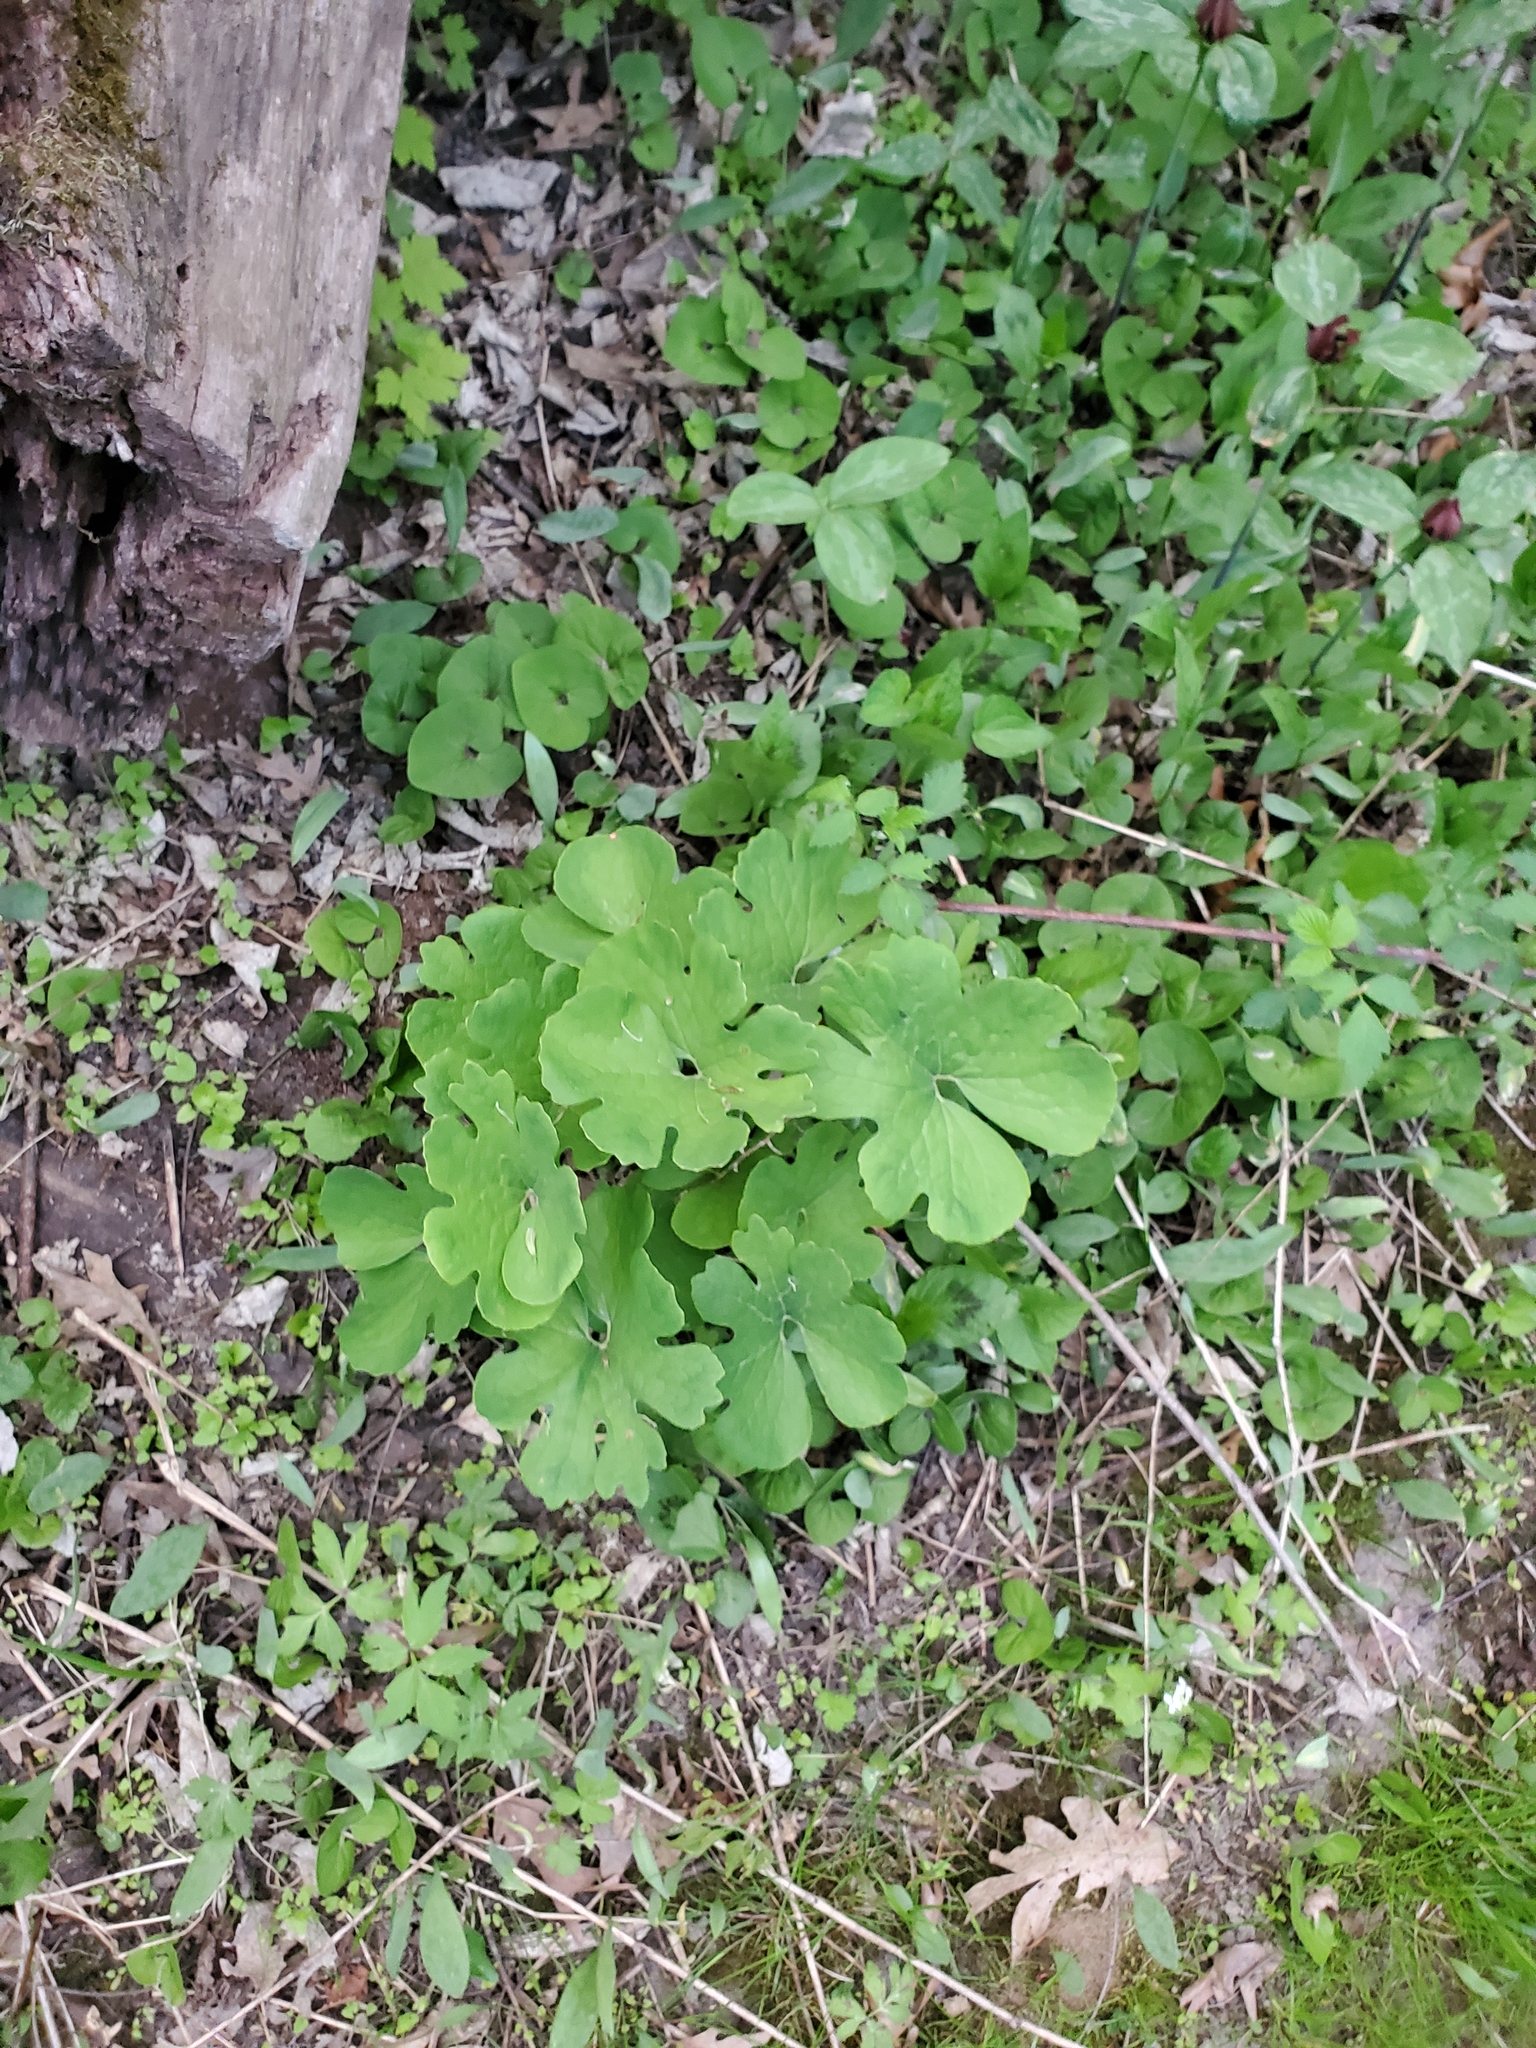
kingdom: Plantae
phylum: Tracheophyta
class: Magnoliopsida
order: Ranunculales
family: Papaveraceae
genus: Sanguinaria
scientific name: Sanguinaria canadensis
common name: Bloodroot
